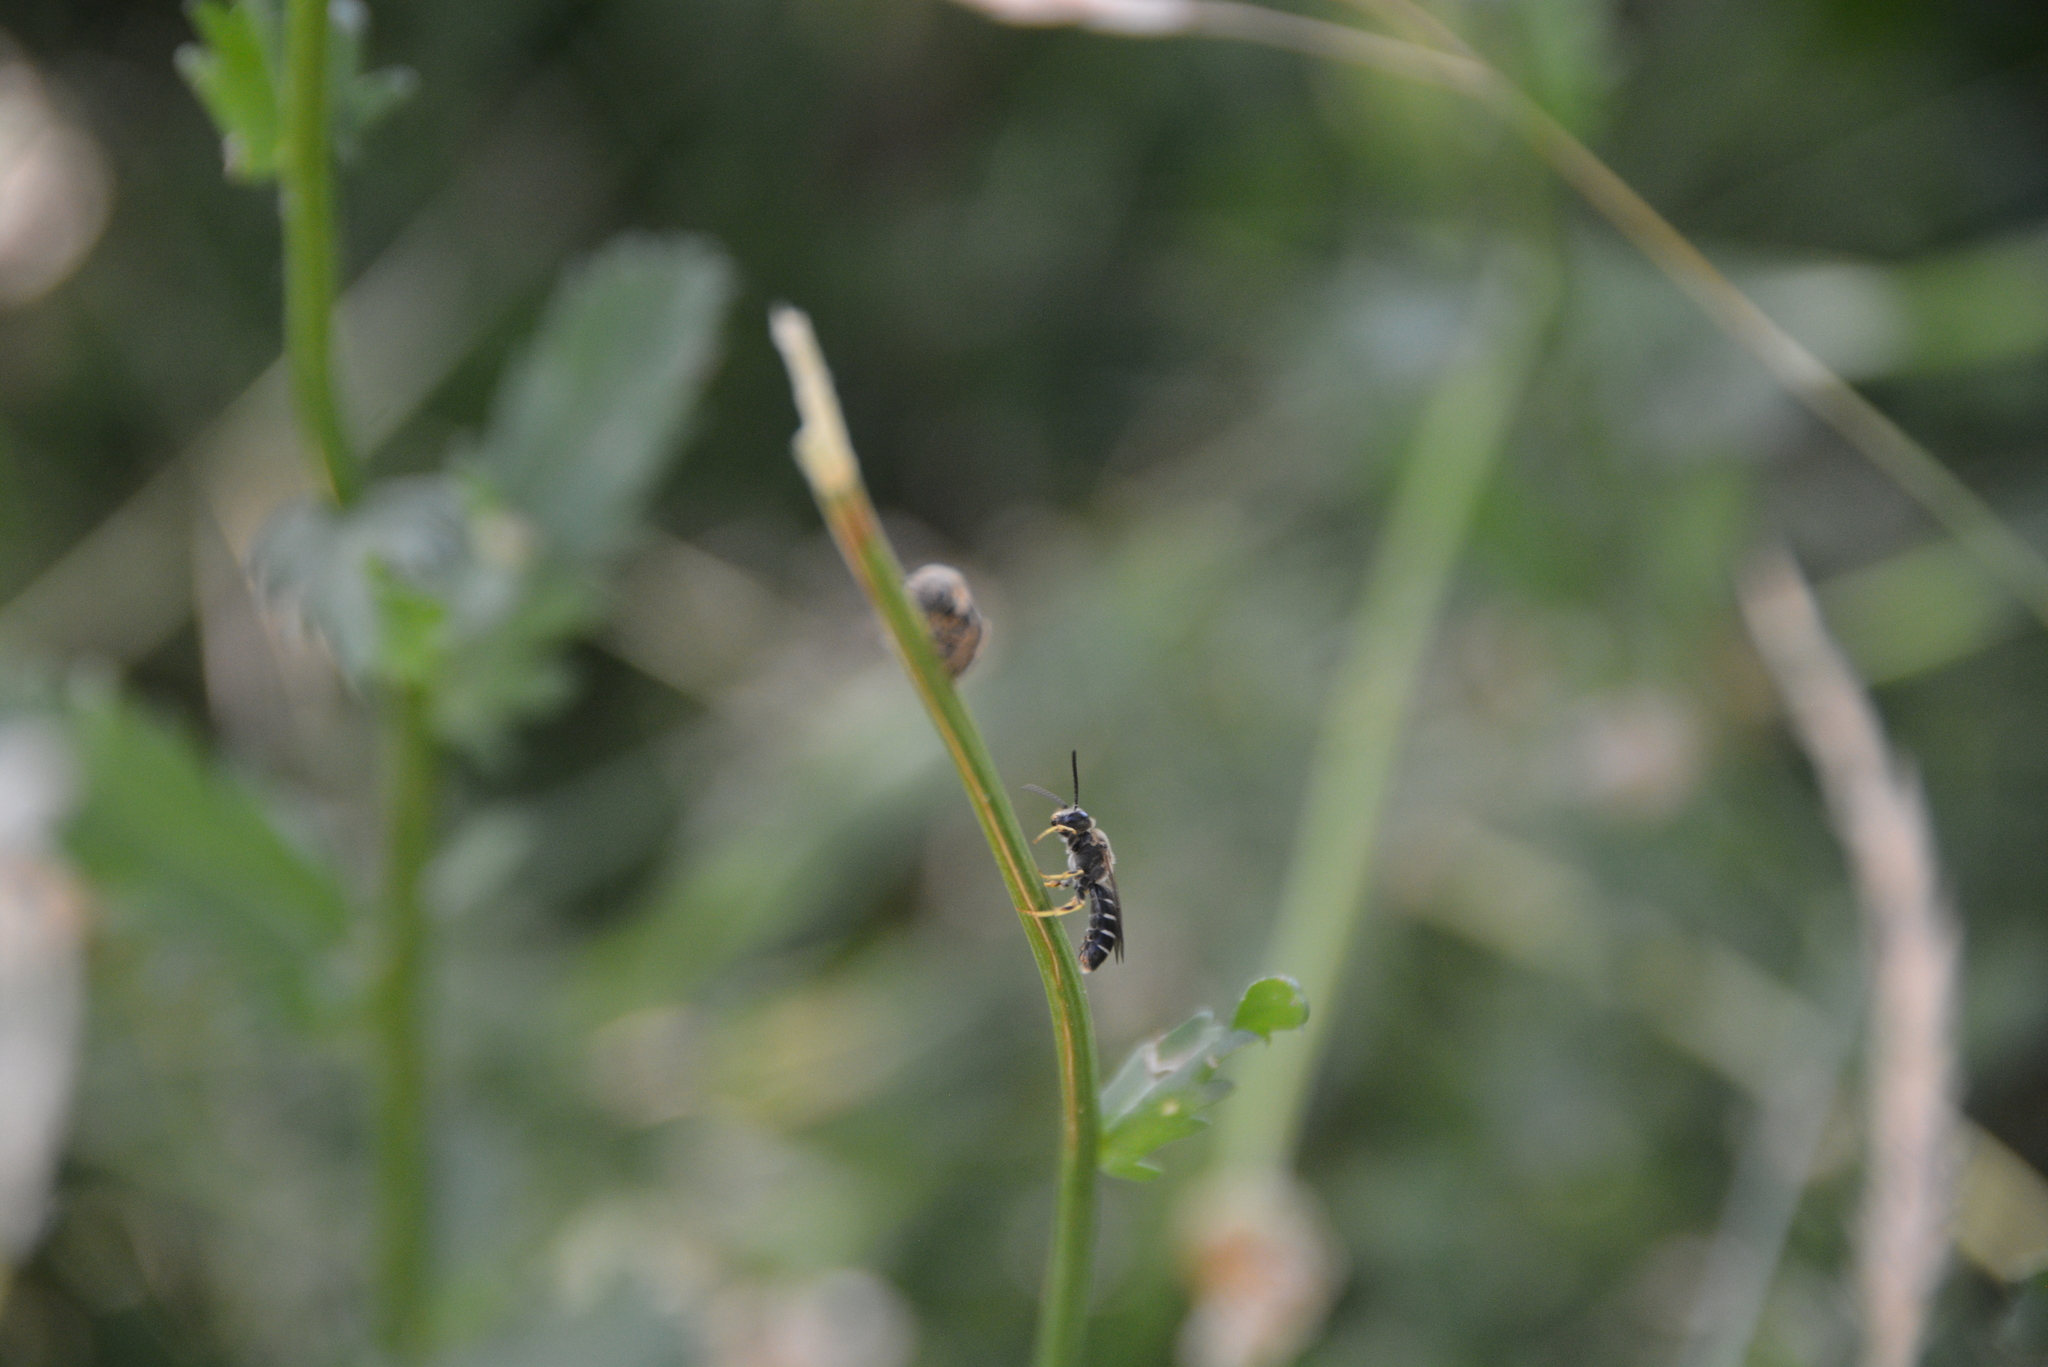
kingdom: Animalia
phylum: Arthropoda
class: Insecta
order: Hymenoptera
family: Halictidae
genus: Halictus
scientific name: Halictus rubicundus
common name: Orange-legged furrow bee
